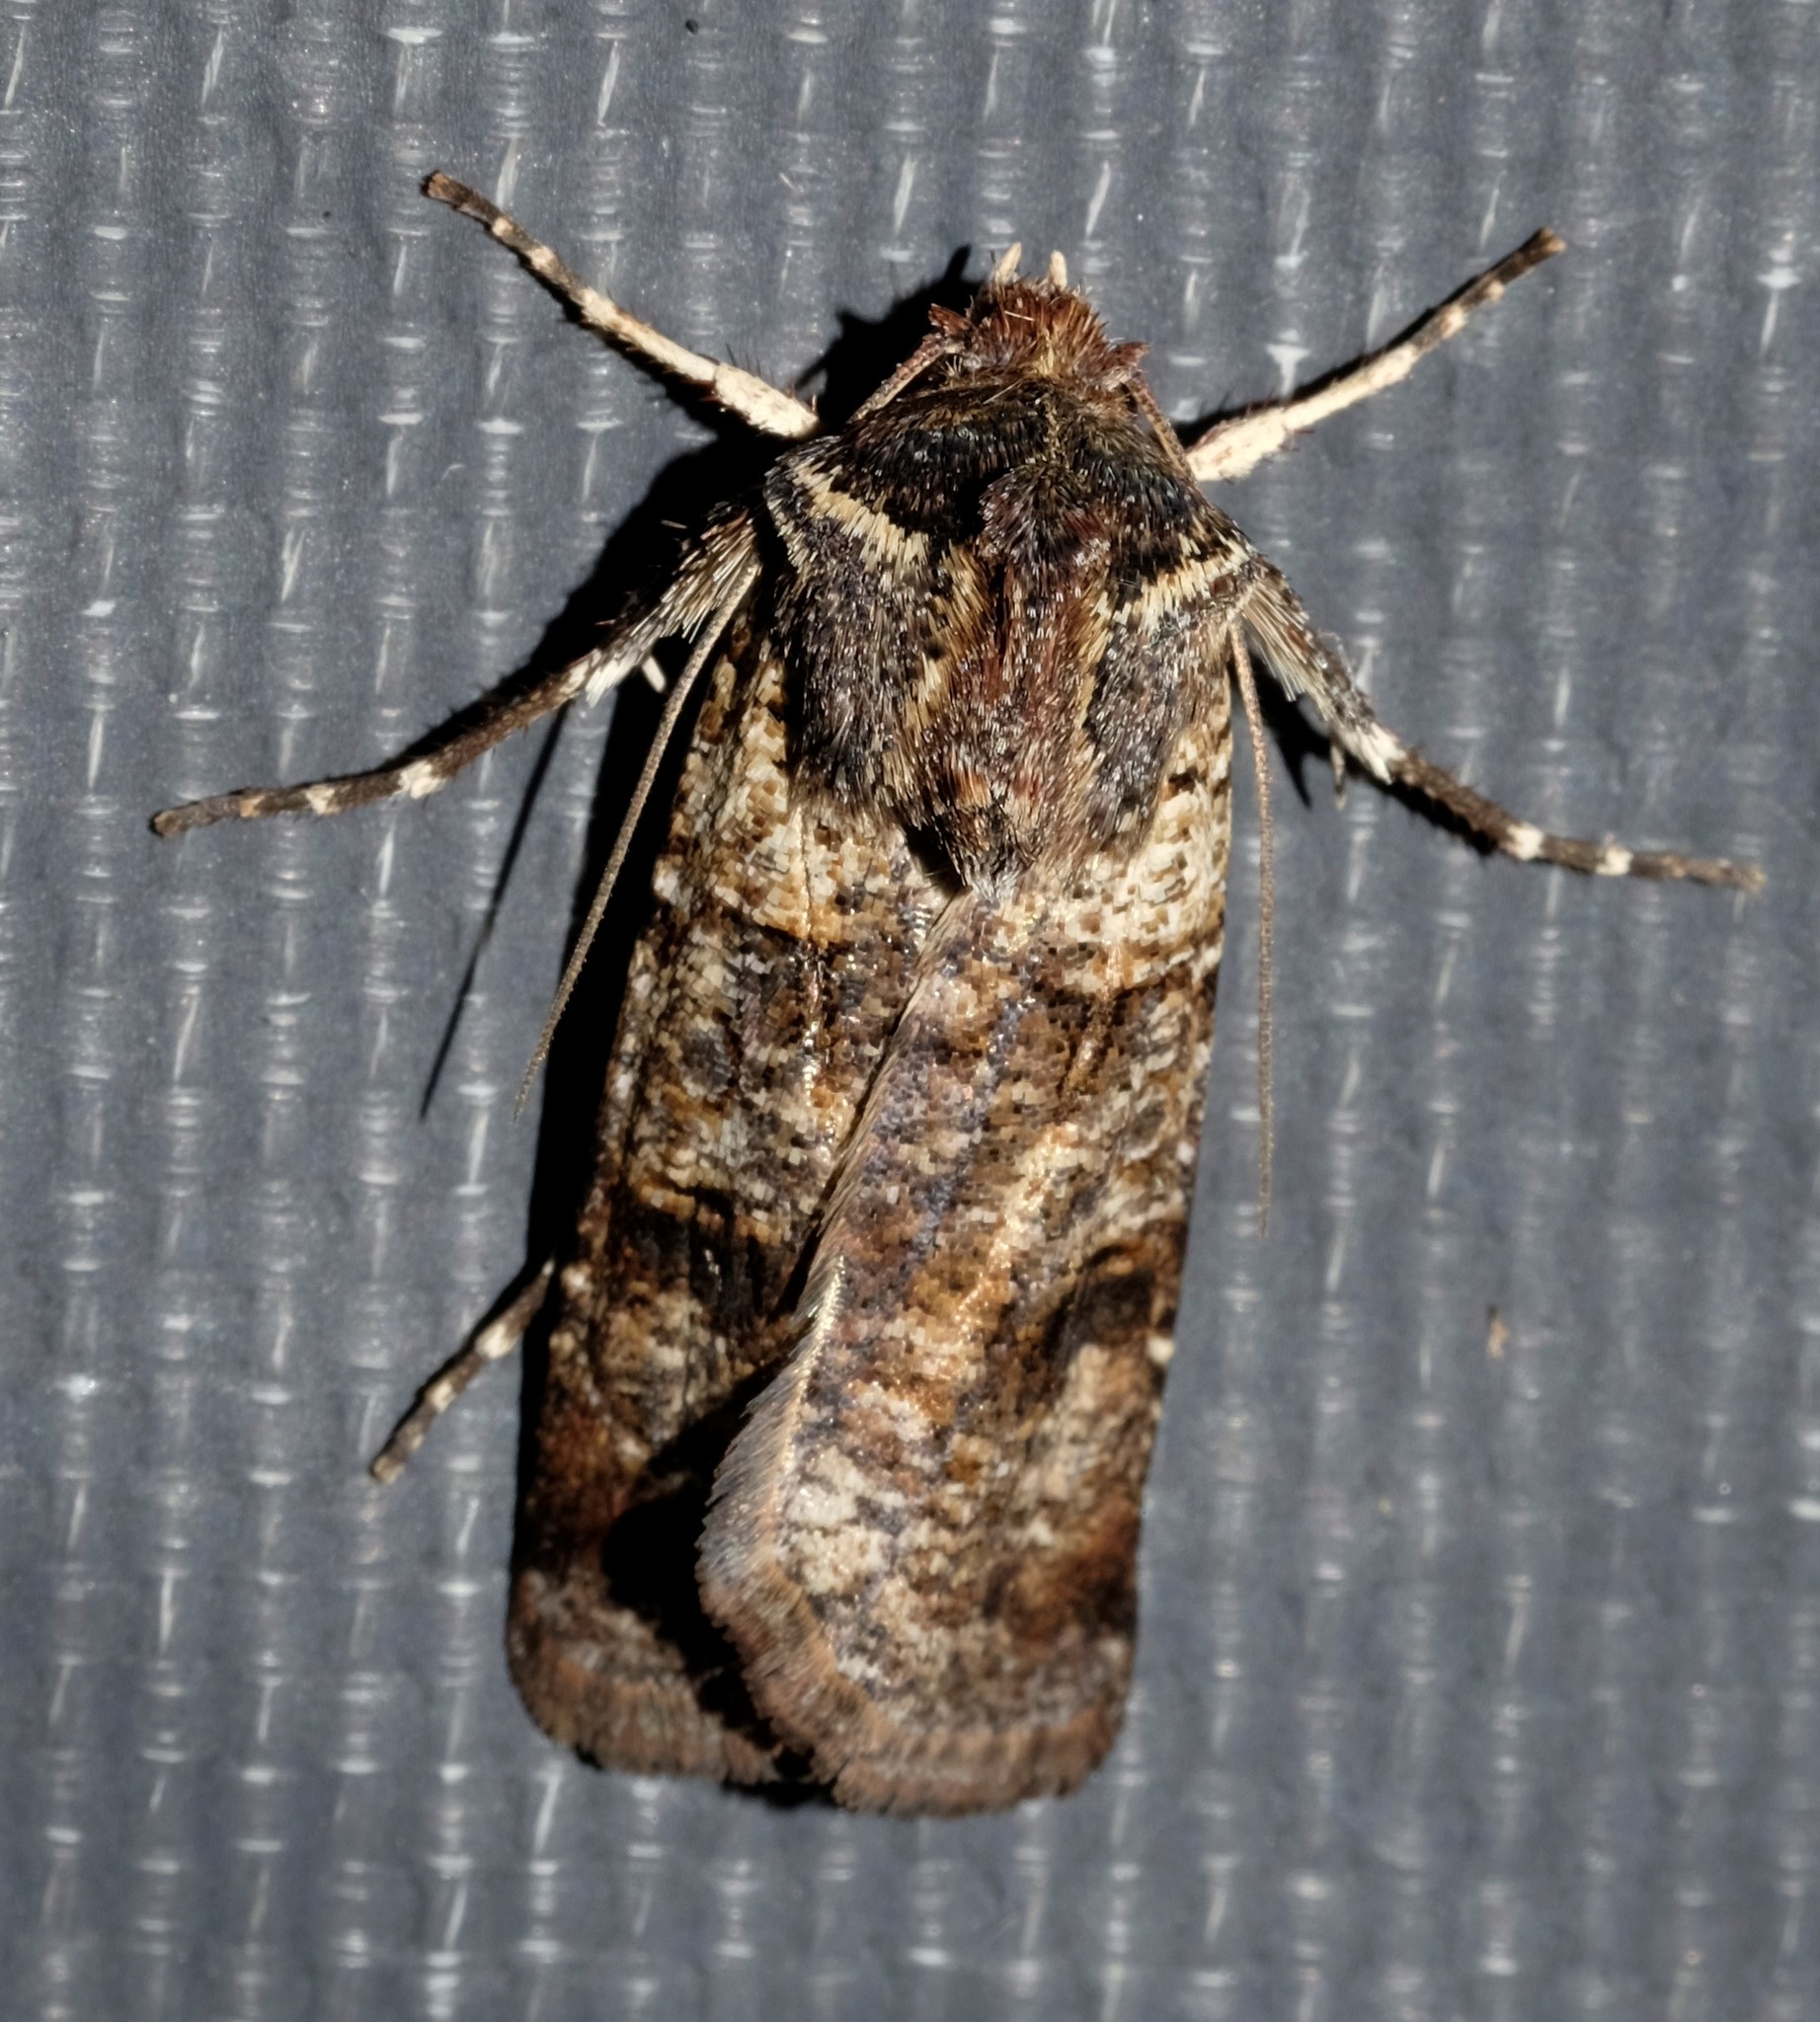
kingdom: Animalia
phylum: Arthropoda
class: Insecta
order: Lepidoptera
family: Noctuidae
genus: Agrotis
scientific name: Agrotis porphyricollis
